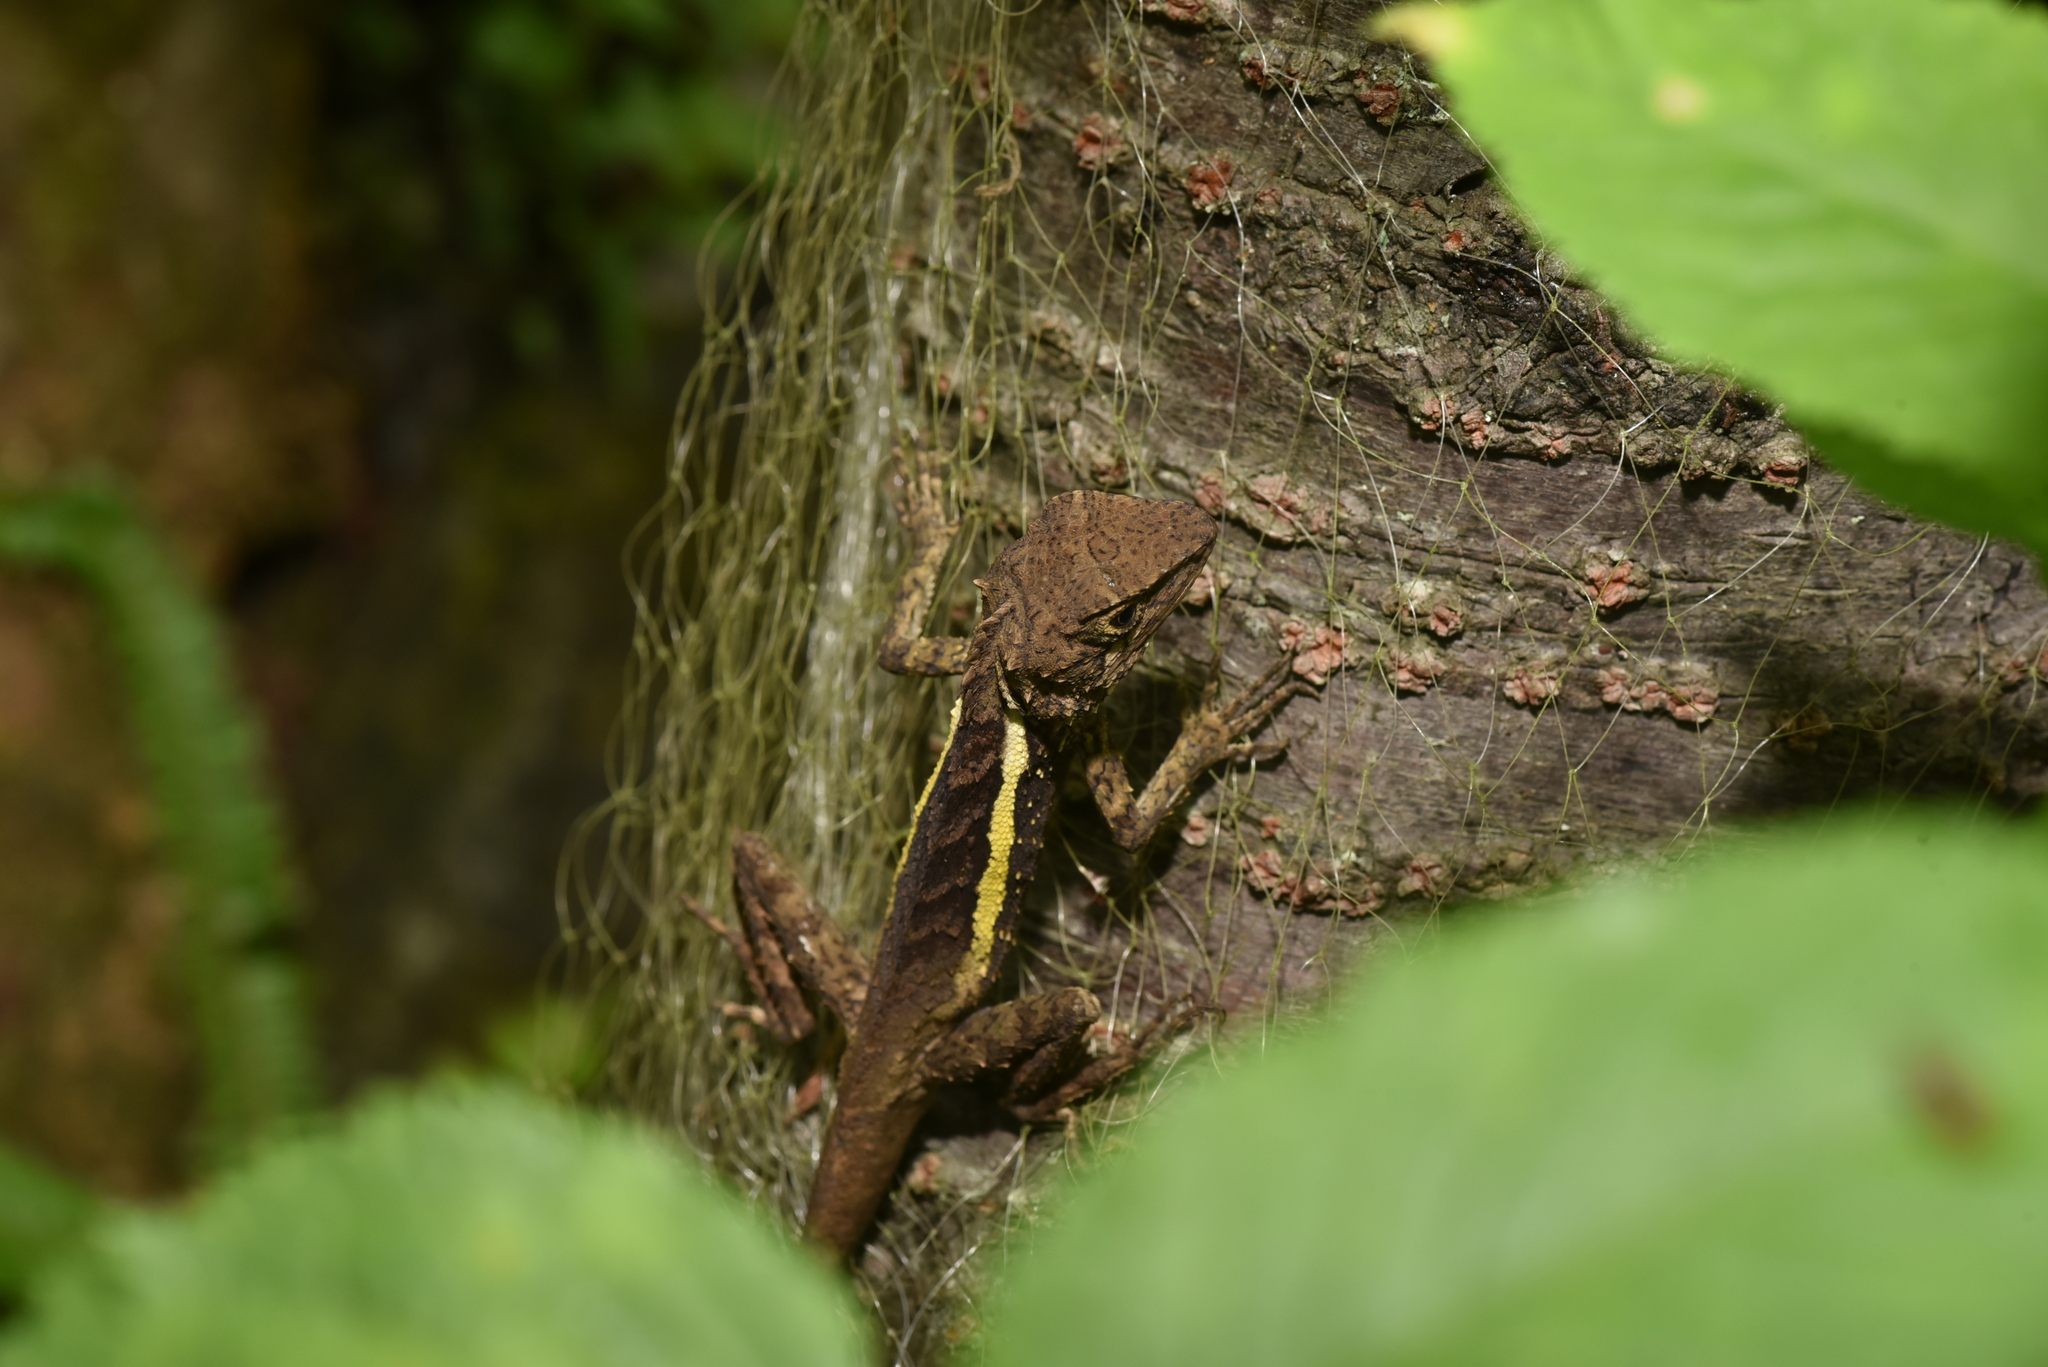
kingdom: Animalia
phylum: Chordata
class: Squamata
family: Agamidae
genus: Diploderma
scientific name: Diploderma swinhonis
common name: Taiwan japalure
